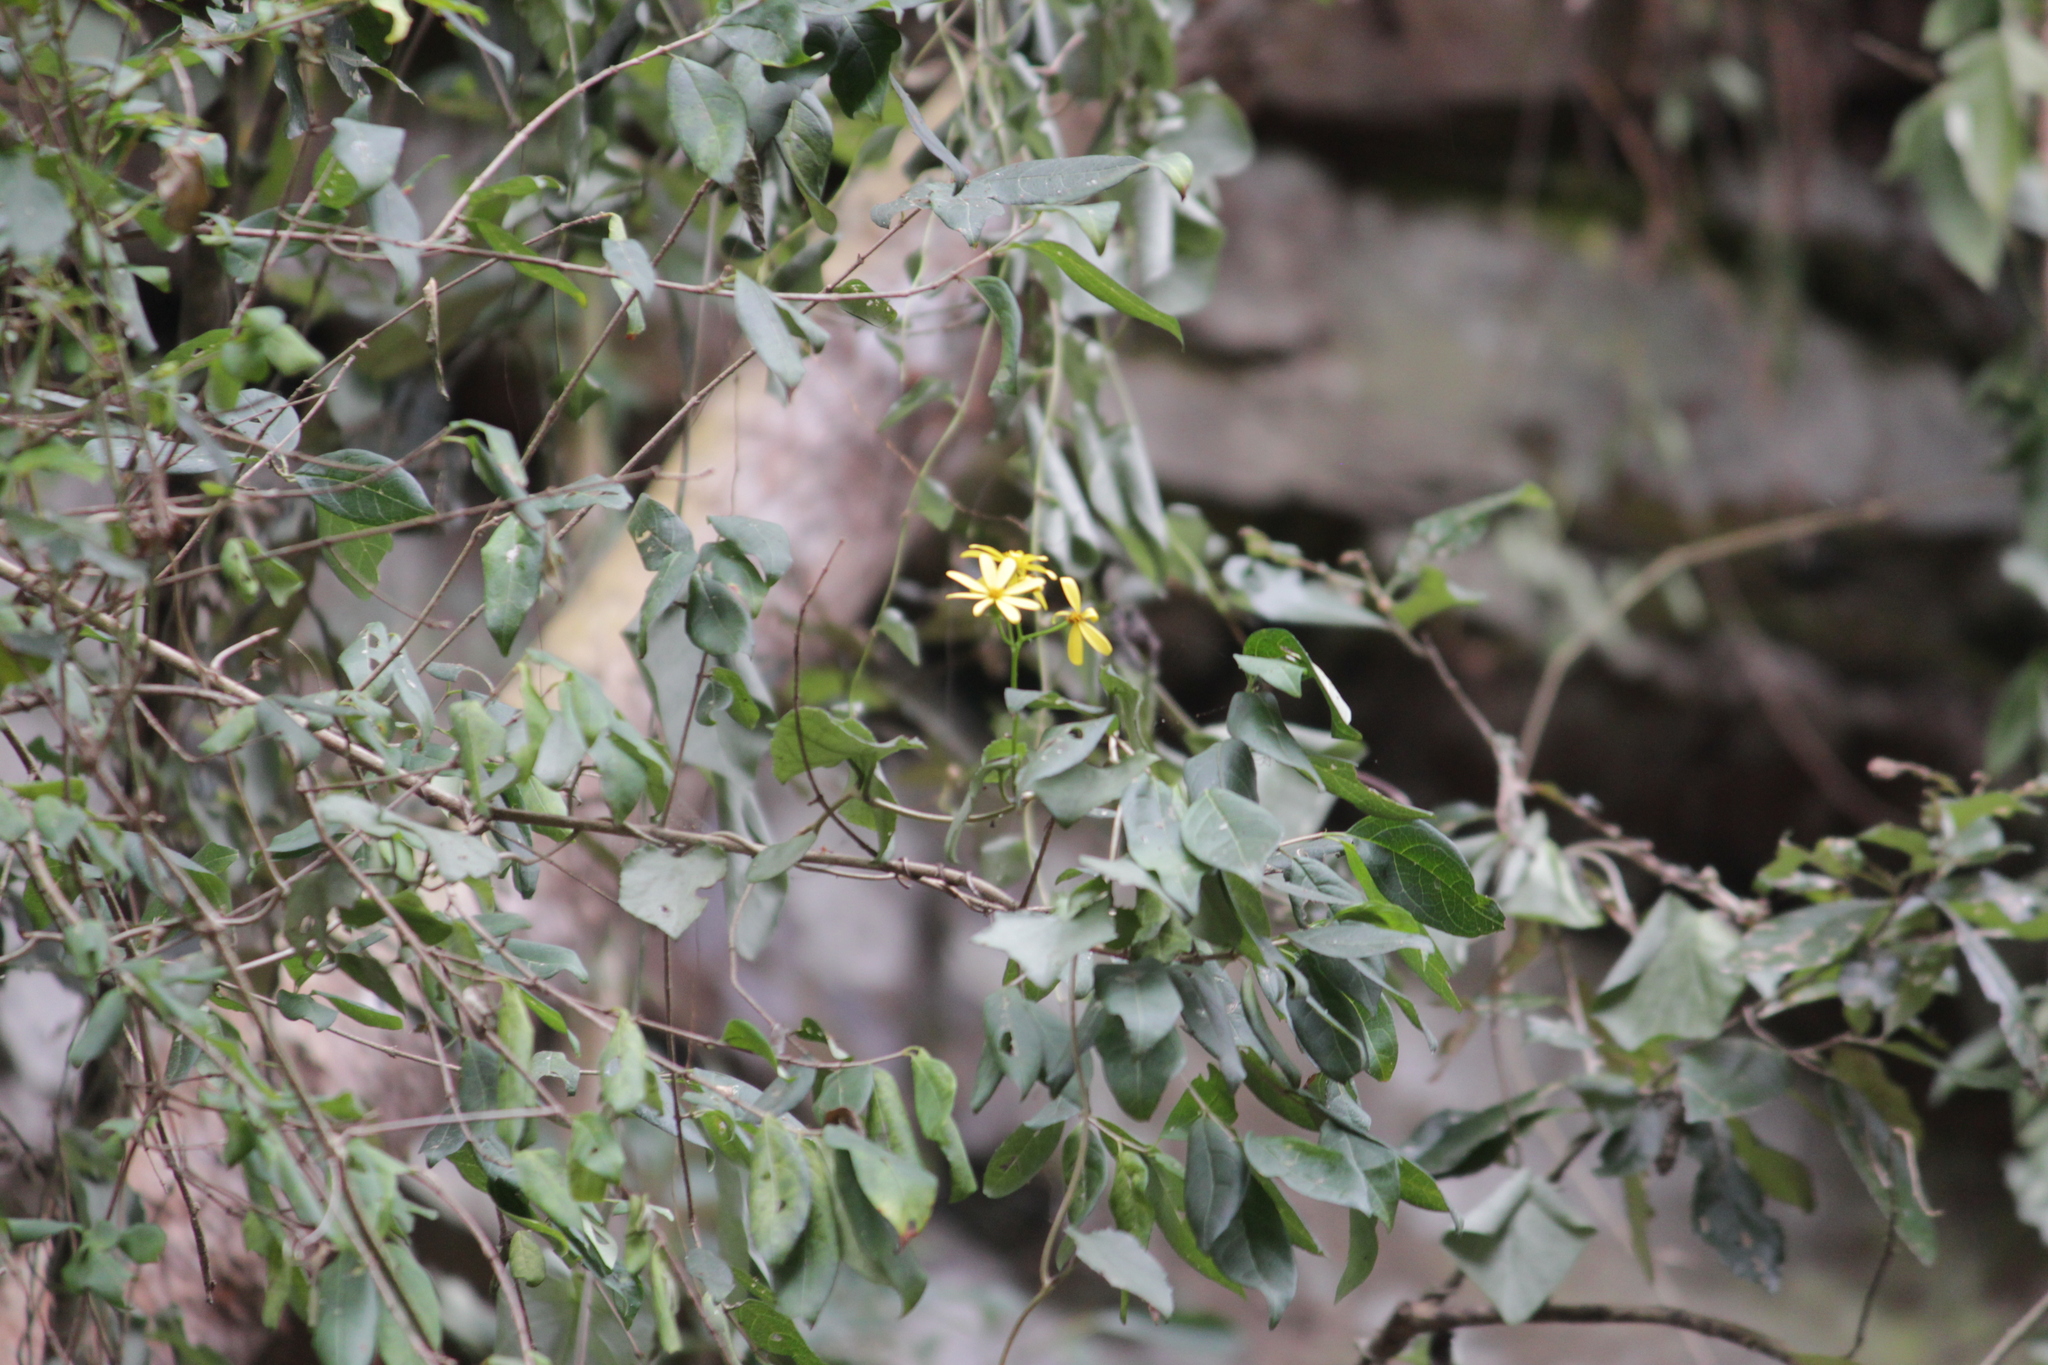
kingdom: Plantae
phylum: Tracheophyta
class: Magnoliopsida
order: Asterales
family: Asteraceae
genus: Senecio
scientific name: Senecio angulatus
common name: Climbing groundsel
